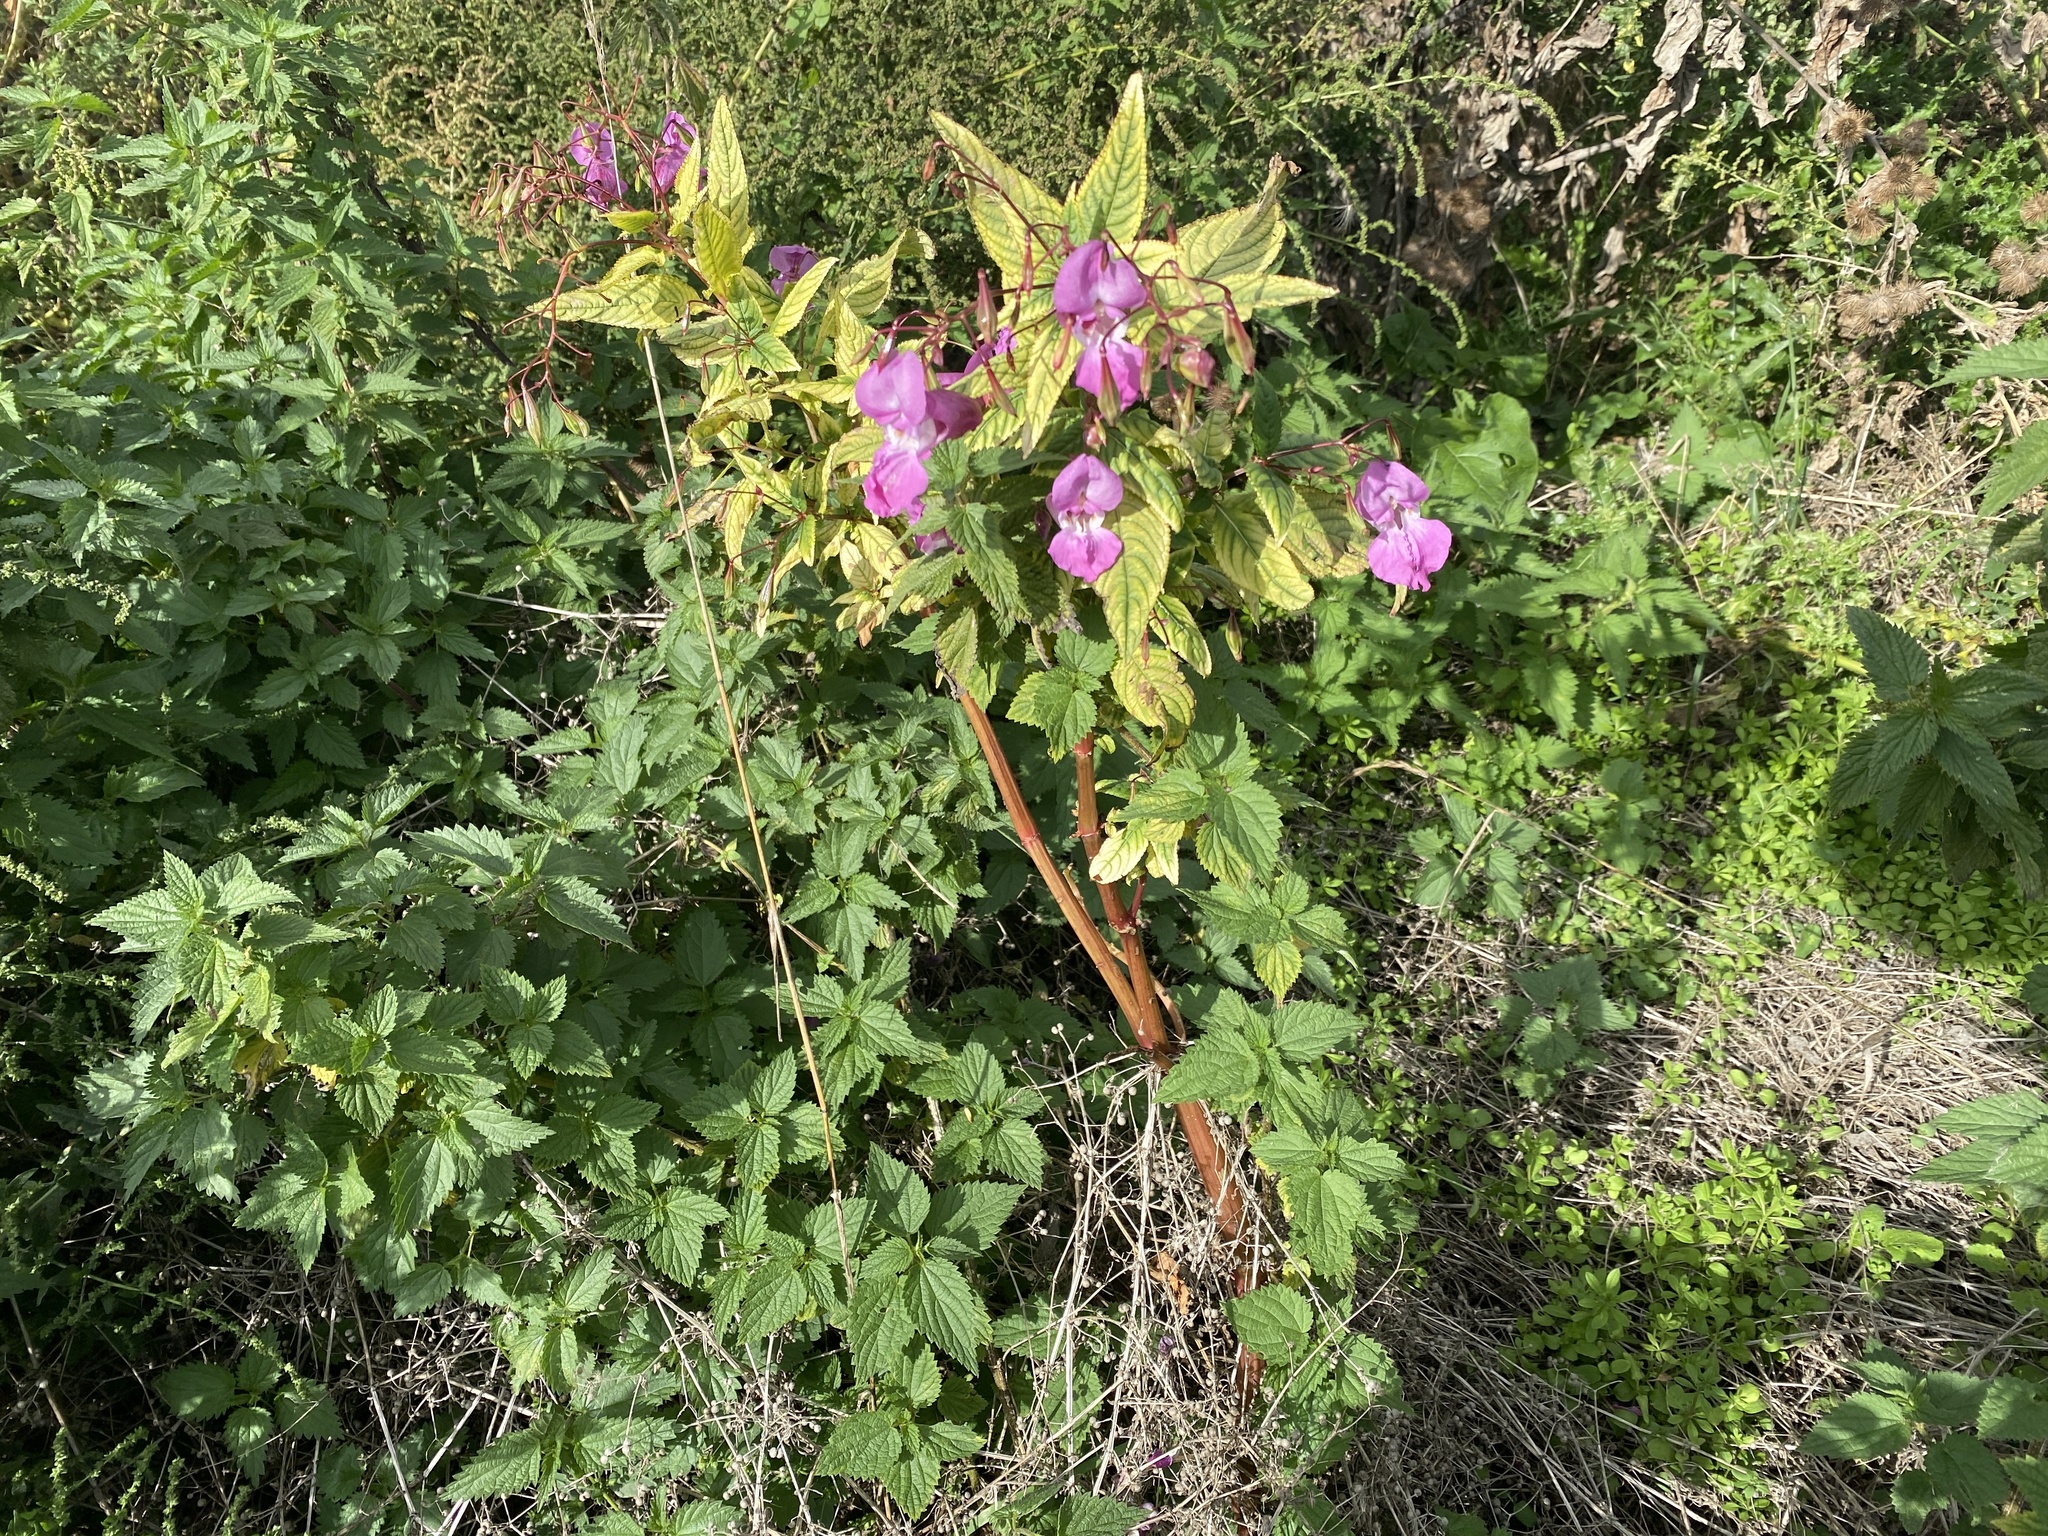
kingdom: Plantae
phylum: Tracheophyta
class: Magnoliopsida
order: Ericales
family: Balsaminaceae
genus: Impatiens
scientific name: Impatiens glandulifera
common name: Himalayan balsam
